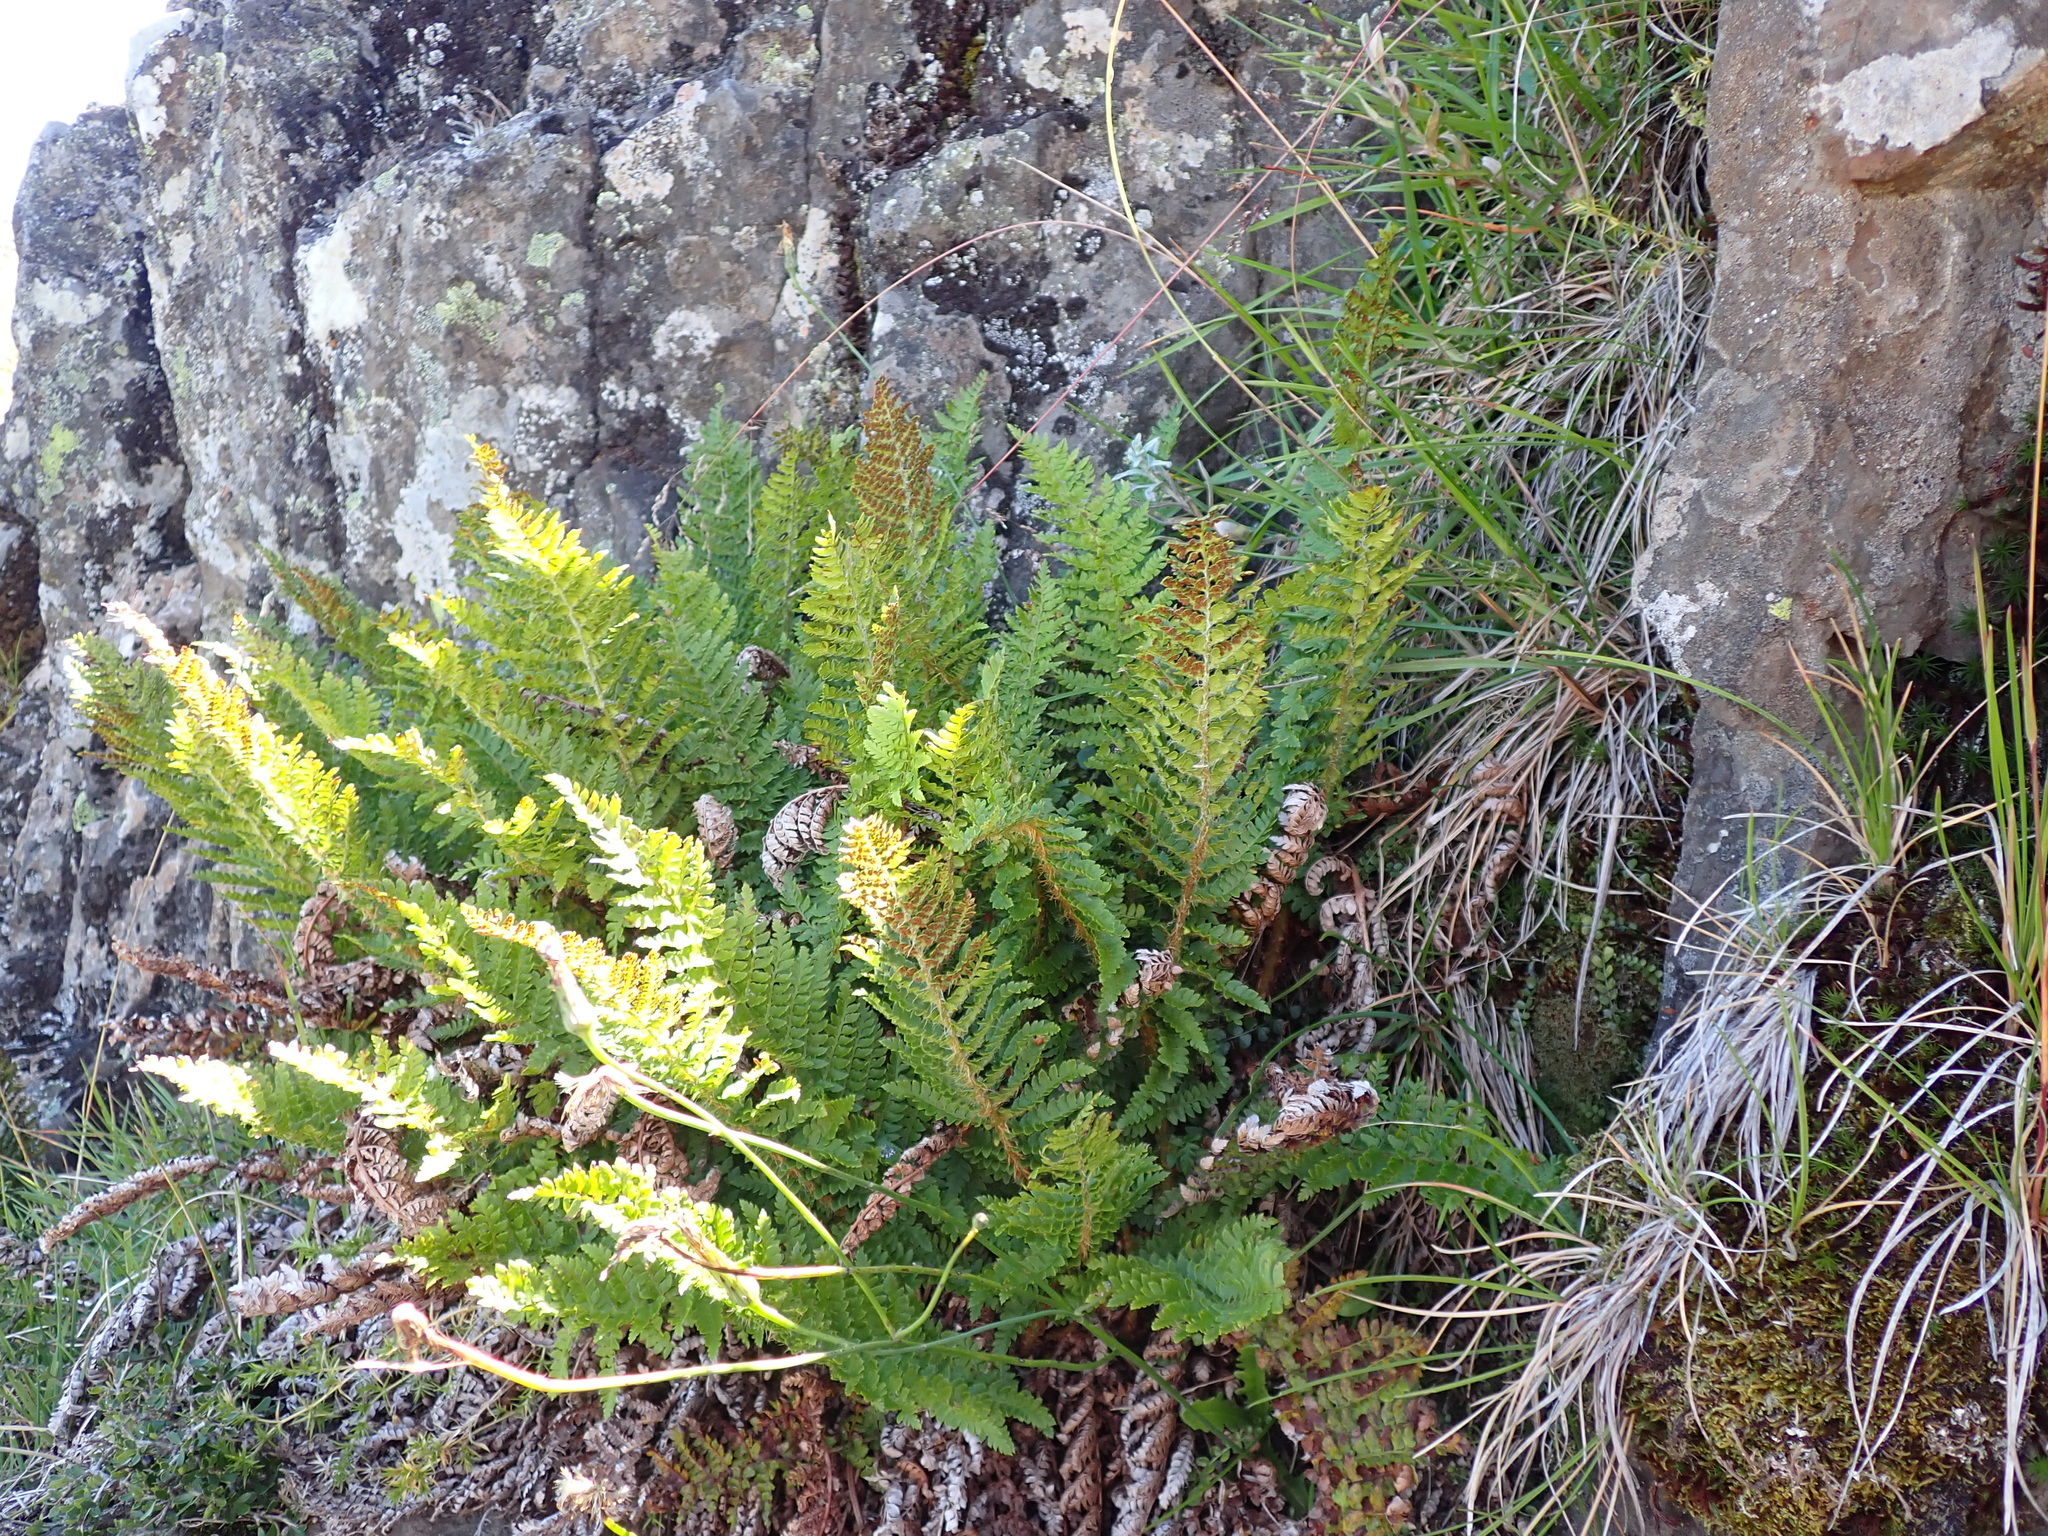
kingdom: Plantae
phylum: Tracheophyta
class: Polypodiopsida
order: Polypodiales
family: Dryopteridaceae
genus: Polystichum
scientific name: Polystichum proliferum
